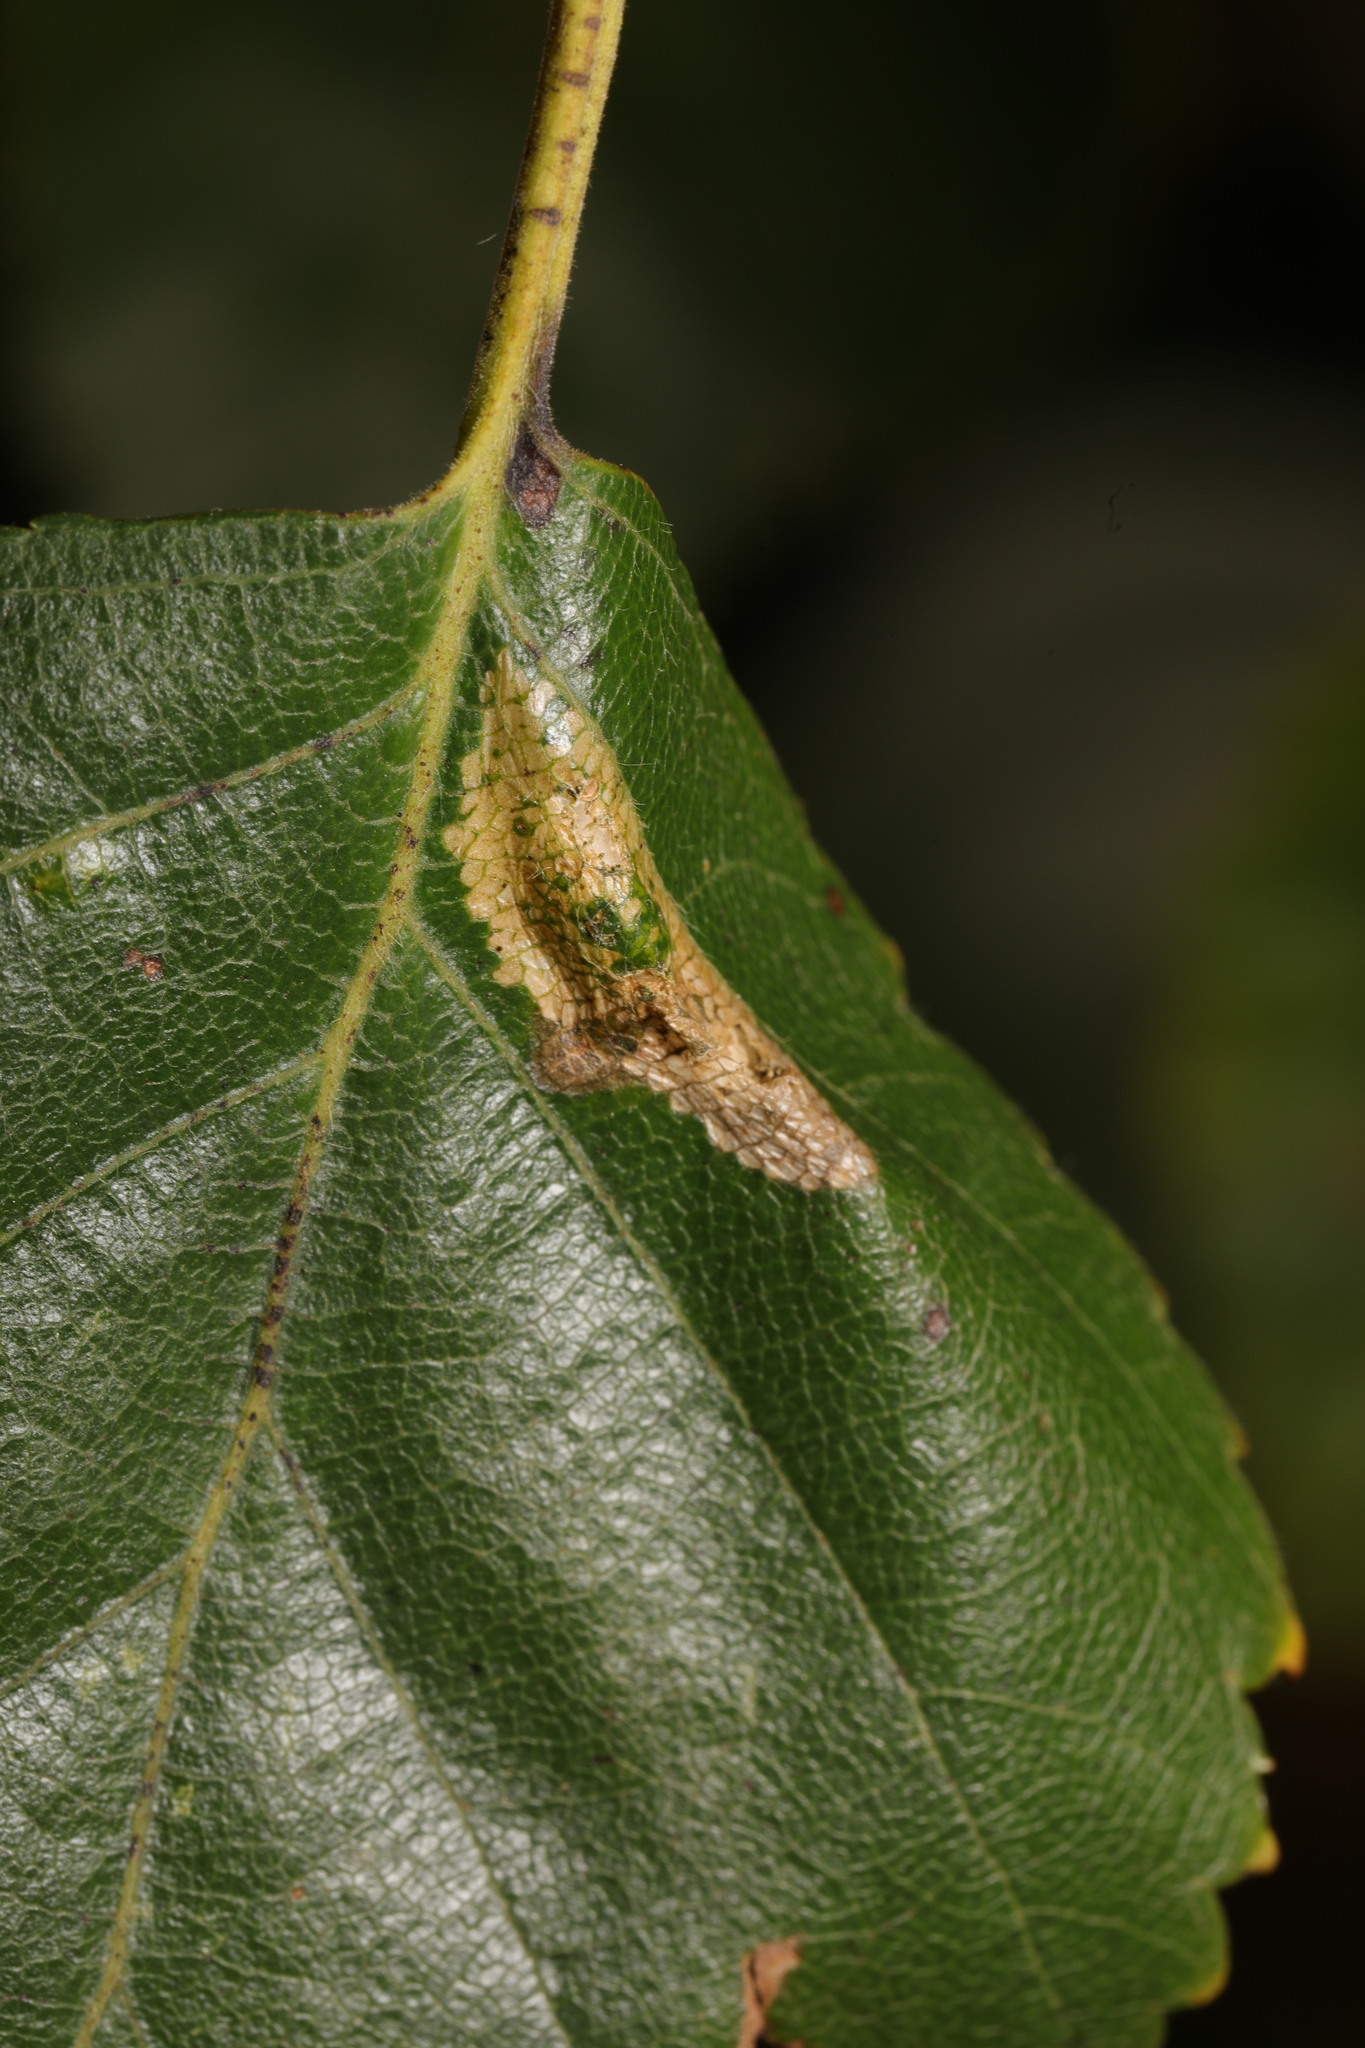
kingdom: Animalia
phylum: Arthropoda
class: Insecta
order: Lepidoptera
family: Gracillariidae
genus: Phyllonorycter
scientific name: Phyllonorycter ulmifoliella
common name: Red birch midget
